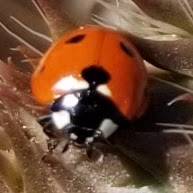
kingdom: Animalia
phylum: Arthropoda
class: Insecta
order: Coleoptera
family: Coccinellidae
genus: Coccinella
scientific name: Coccinella septempunctata
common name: Sevenspotted lady beetle
